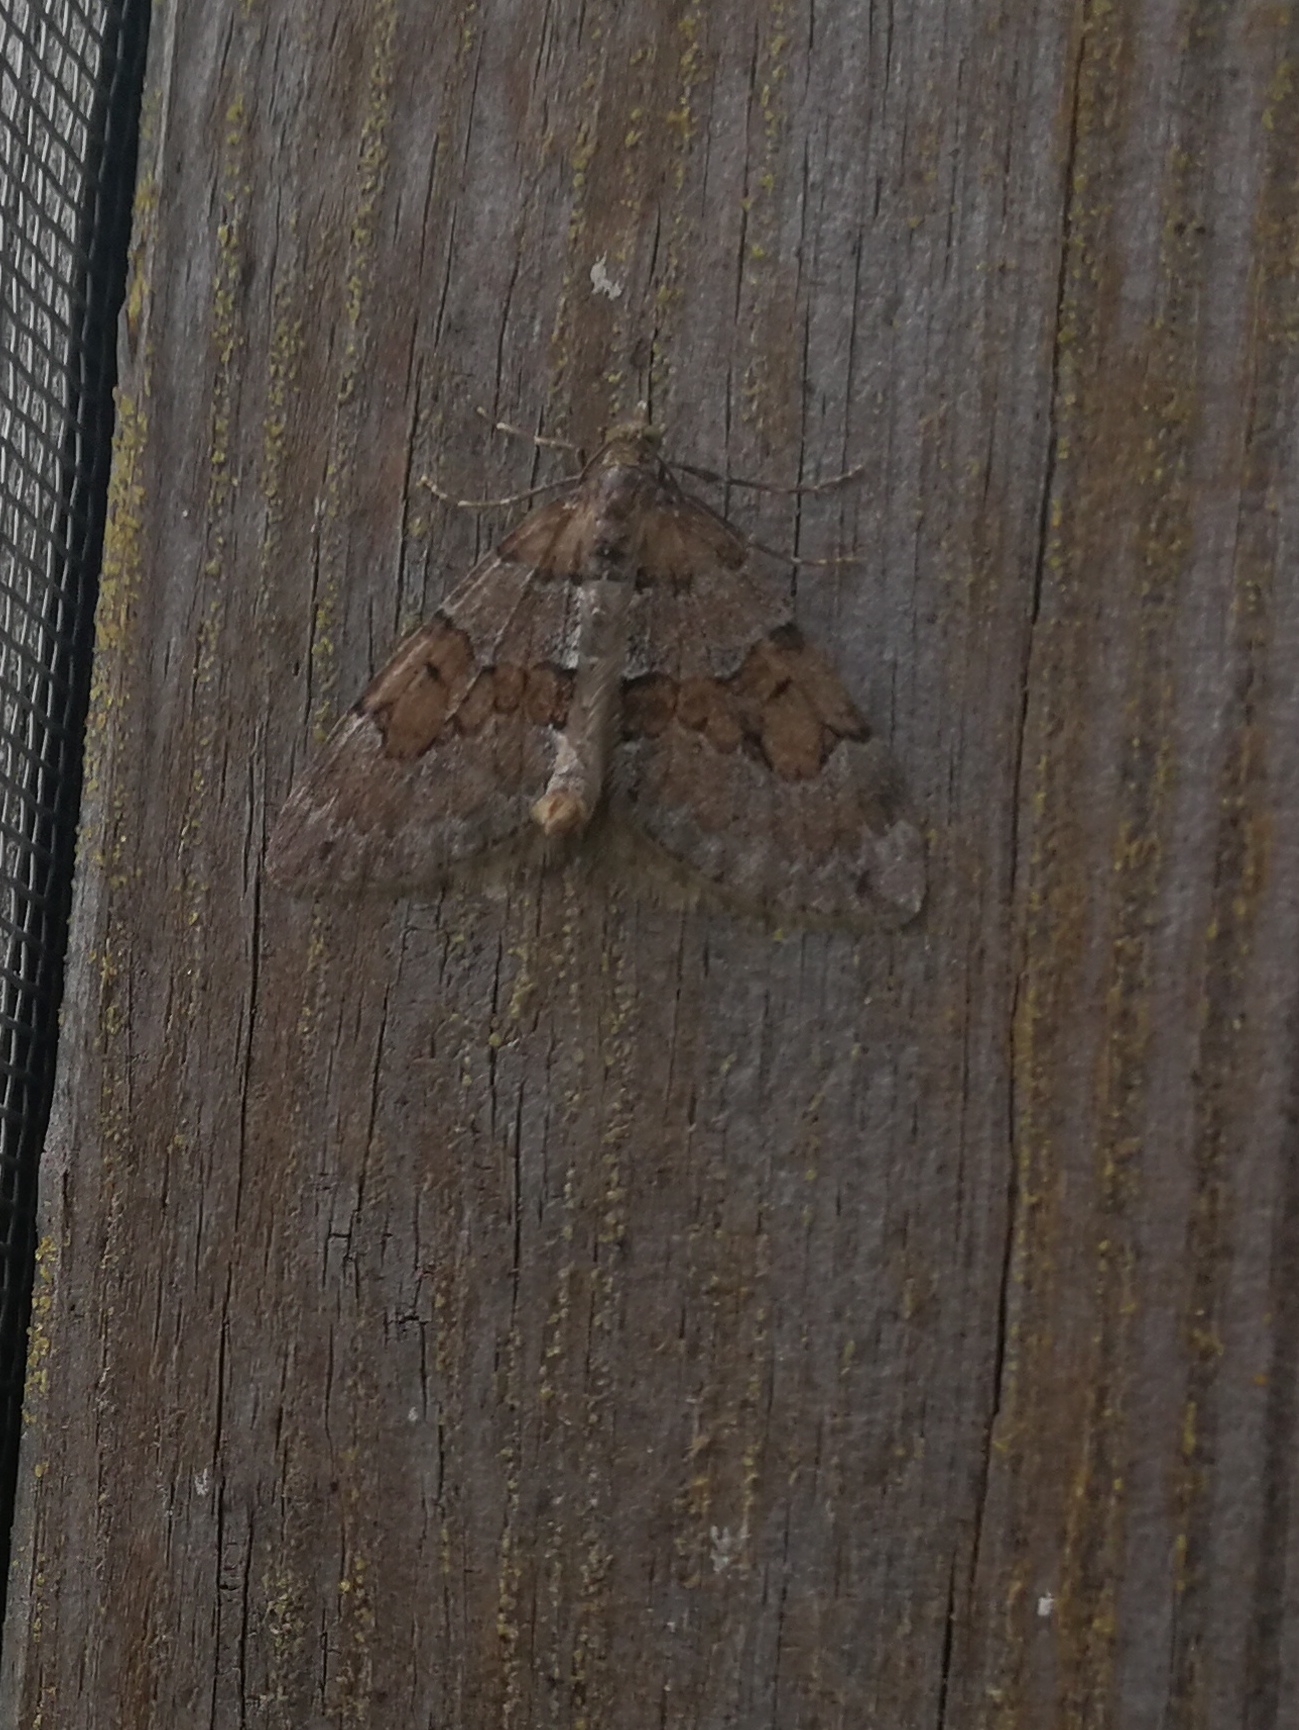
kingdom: Animalia
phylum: Arthropoda
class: Insecta
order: Lepidoptera
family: Geometridae
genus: Thera
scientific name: Thera obeliscata
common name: Grey pine carpet
